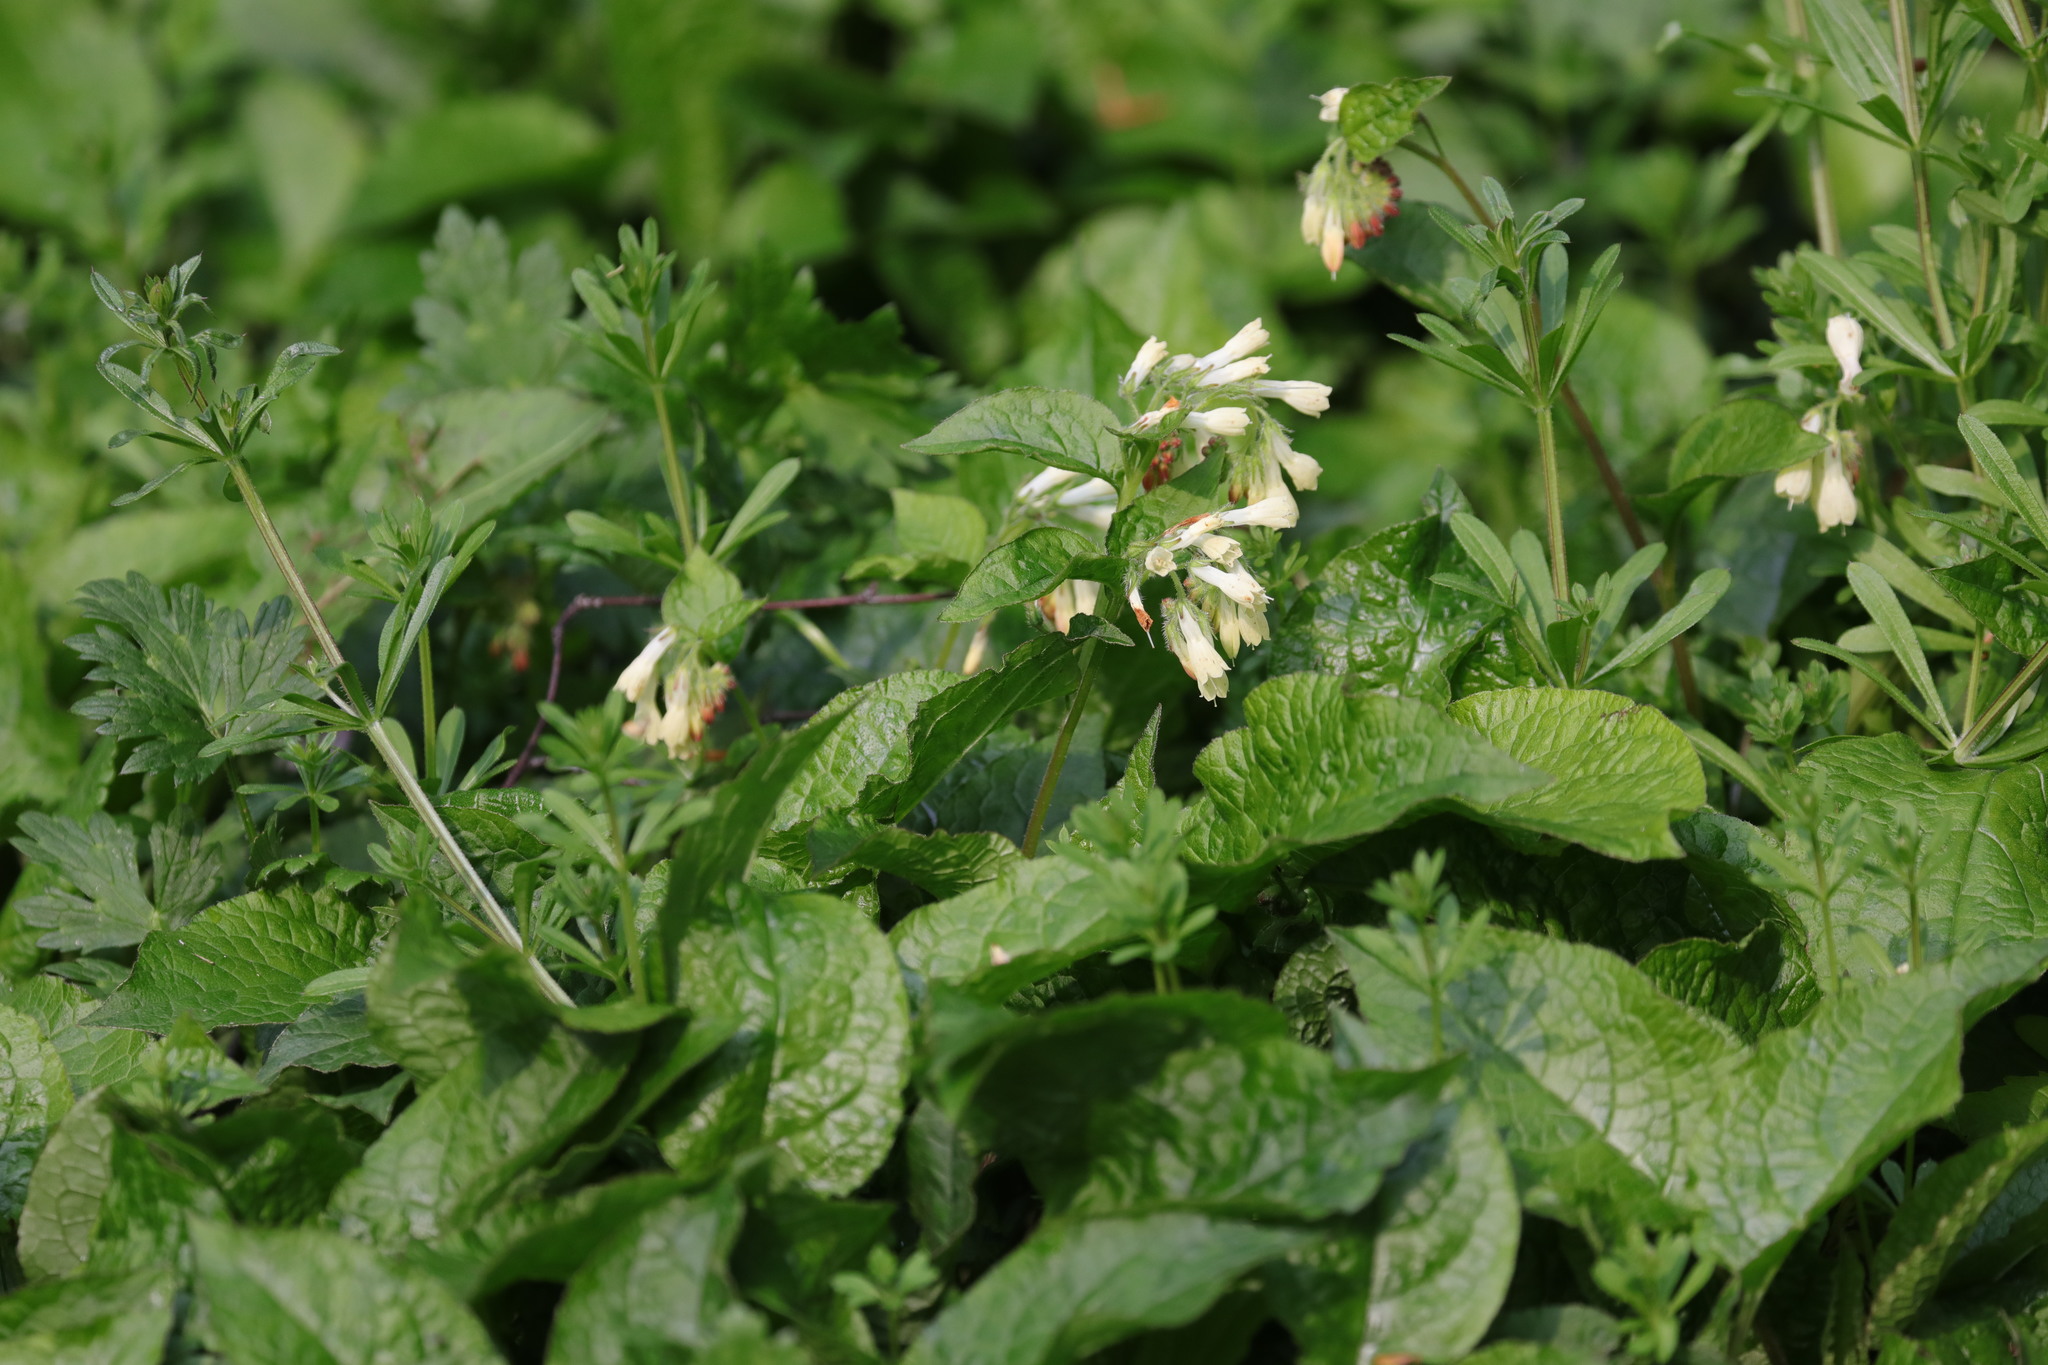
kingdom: Plantae
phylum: Tracheophyta
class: Magnoliopsida
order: Boraginales
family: Boraginaceae
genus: Symphytum
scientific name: Symphytum grandiflorum
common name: Creeping comfrey
